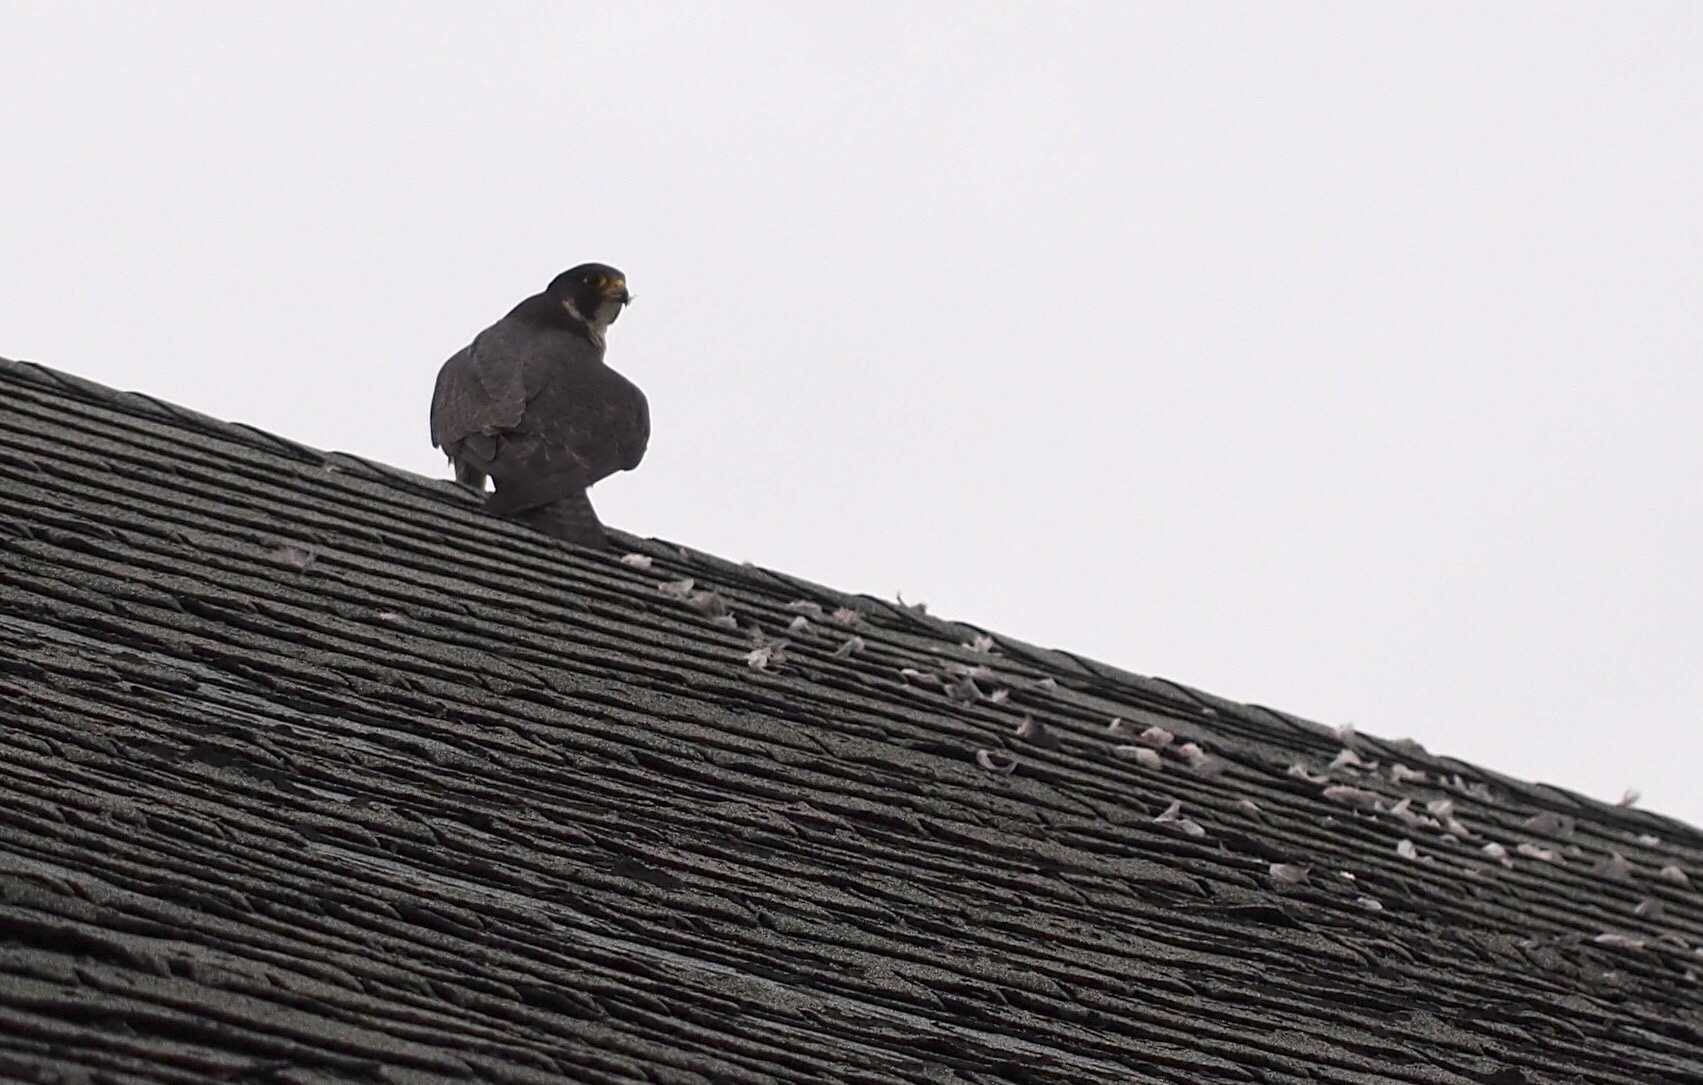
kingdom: Animalia
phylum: Chordata
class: Aves
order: Falconiformes
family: Falconidae
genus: Falco
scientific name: Falco peregrinus
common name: Peregrine falcon
